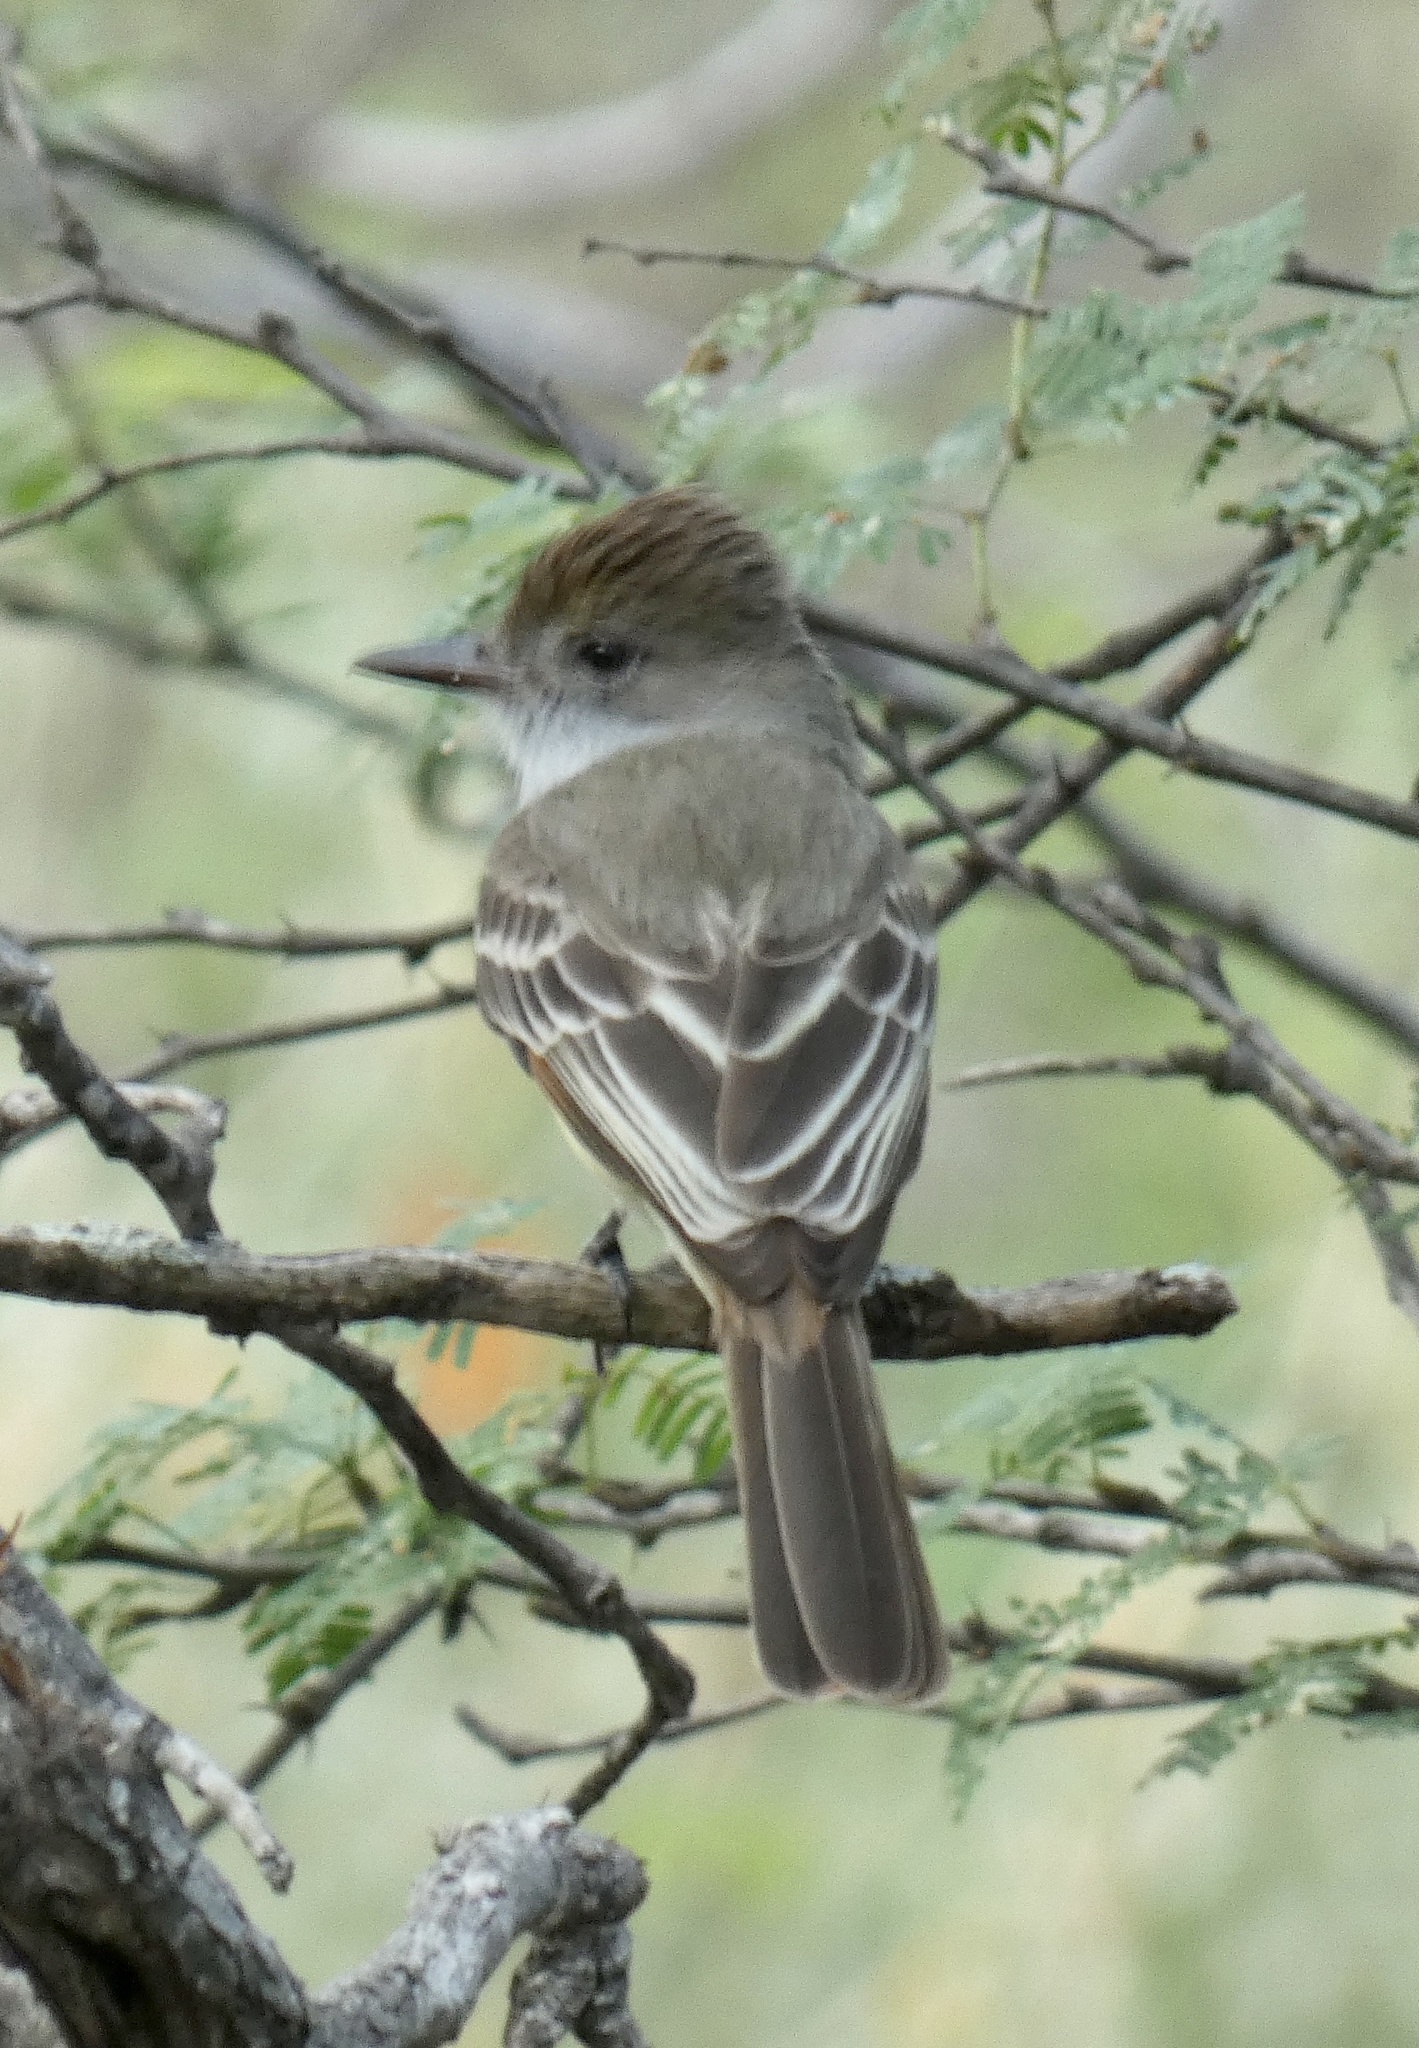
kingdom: Animalia
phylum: Chordata
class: Aves
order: Passeriformes
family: Tyrannidae
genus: Myiarchus
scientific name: Myiarchus tyrannulus
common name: Brown-crested flycatcher
